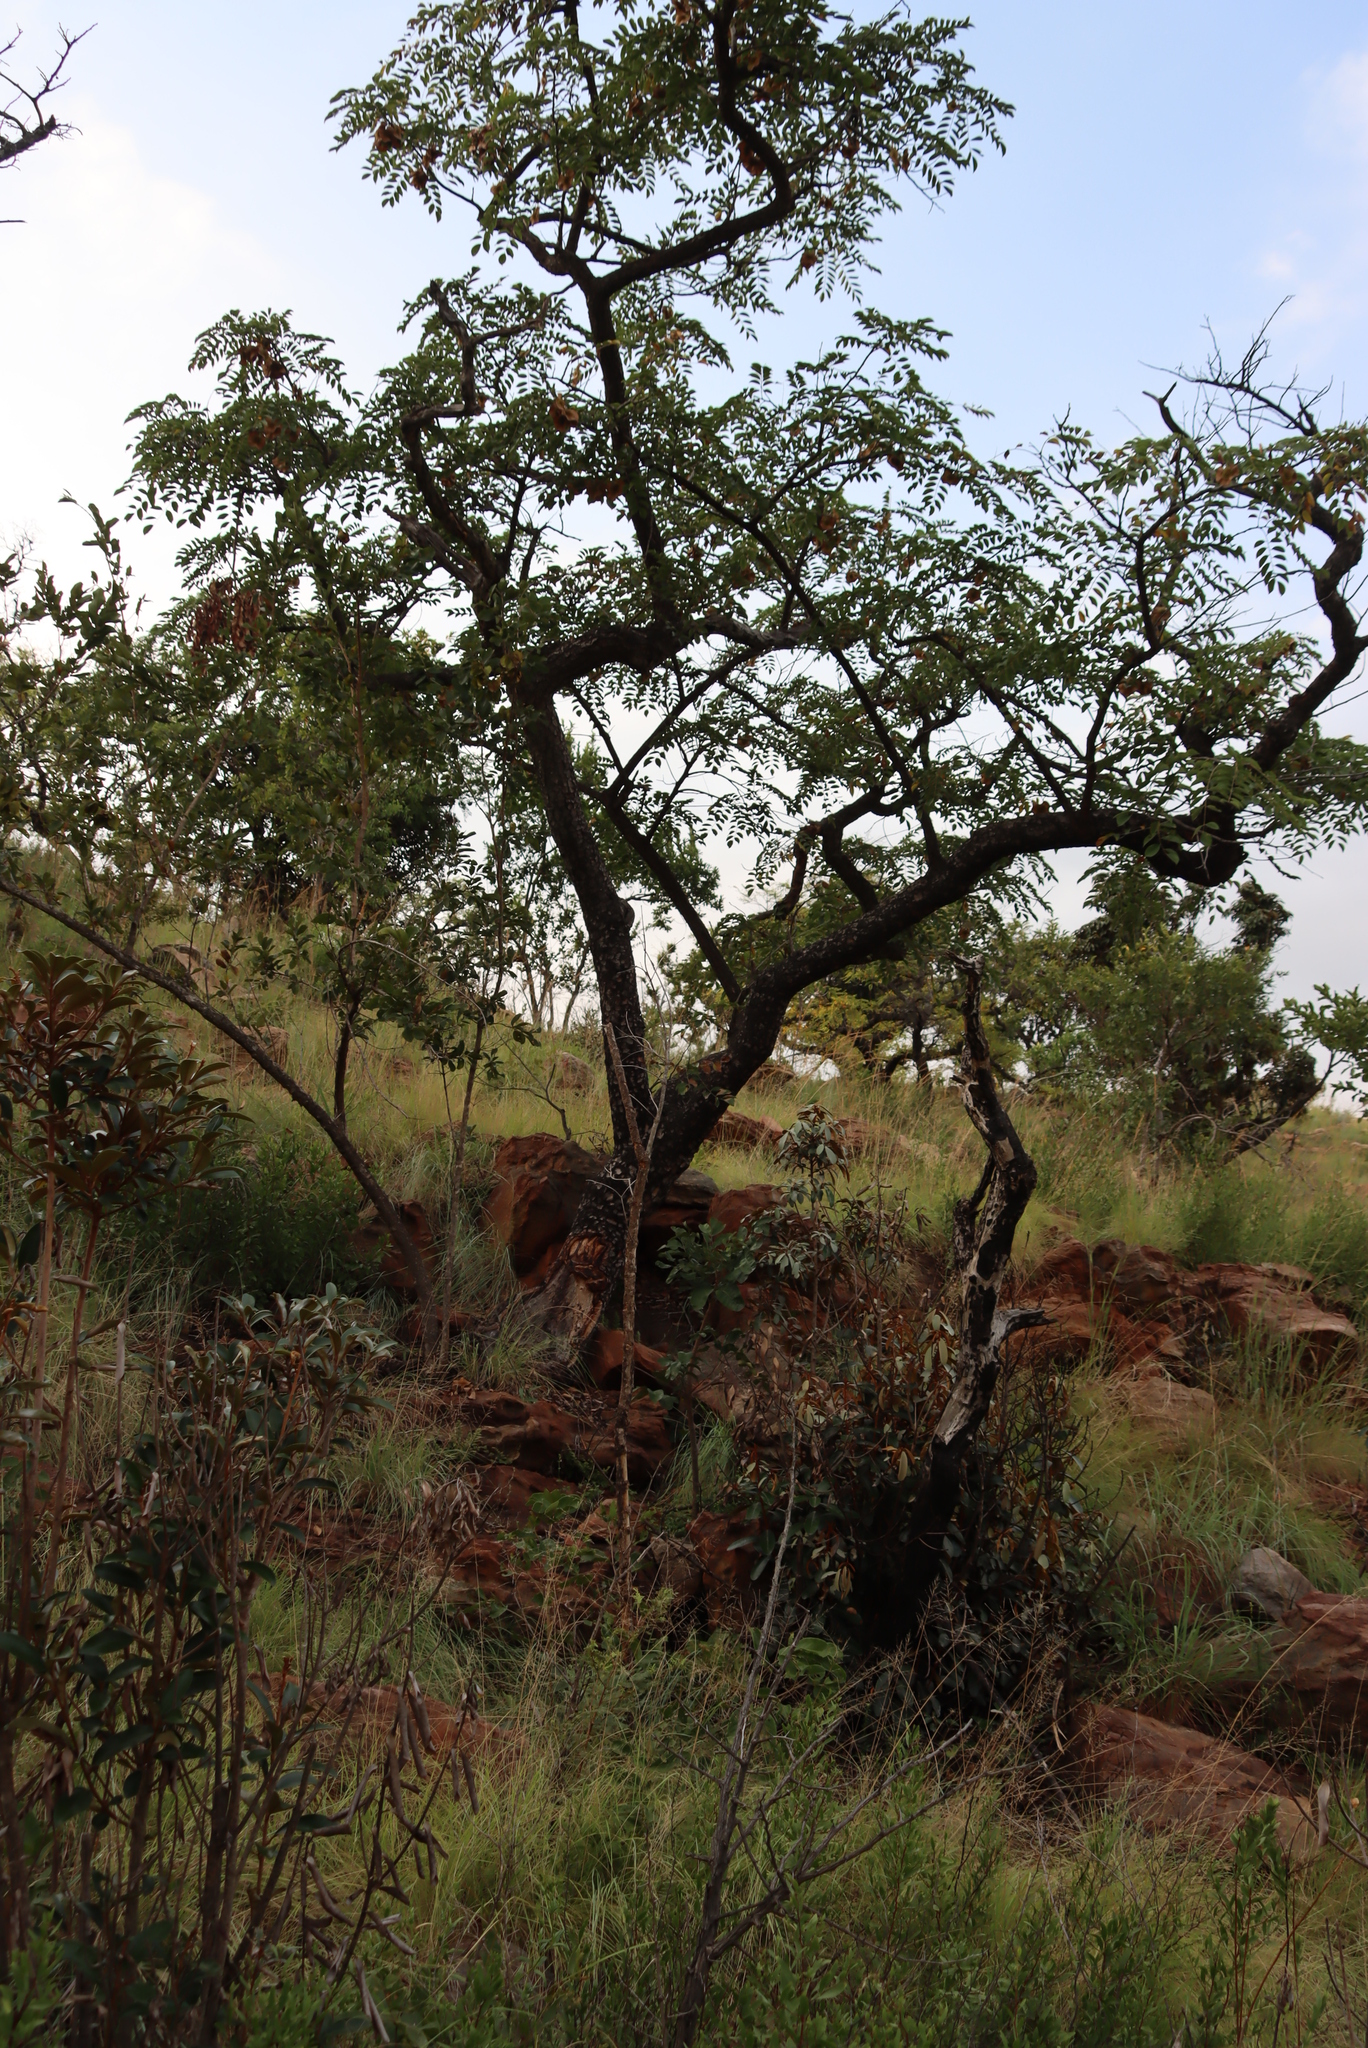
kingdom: Plantae
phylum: Tracheophyta
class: Magnoliopsida
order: Fabales
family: Fabaceae
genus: Pterocarpus
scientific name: Pterocarpus angolensis
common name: Bloodwood tree
